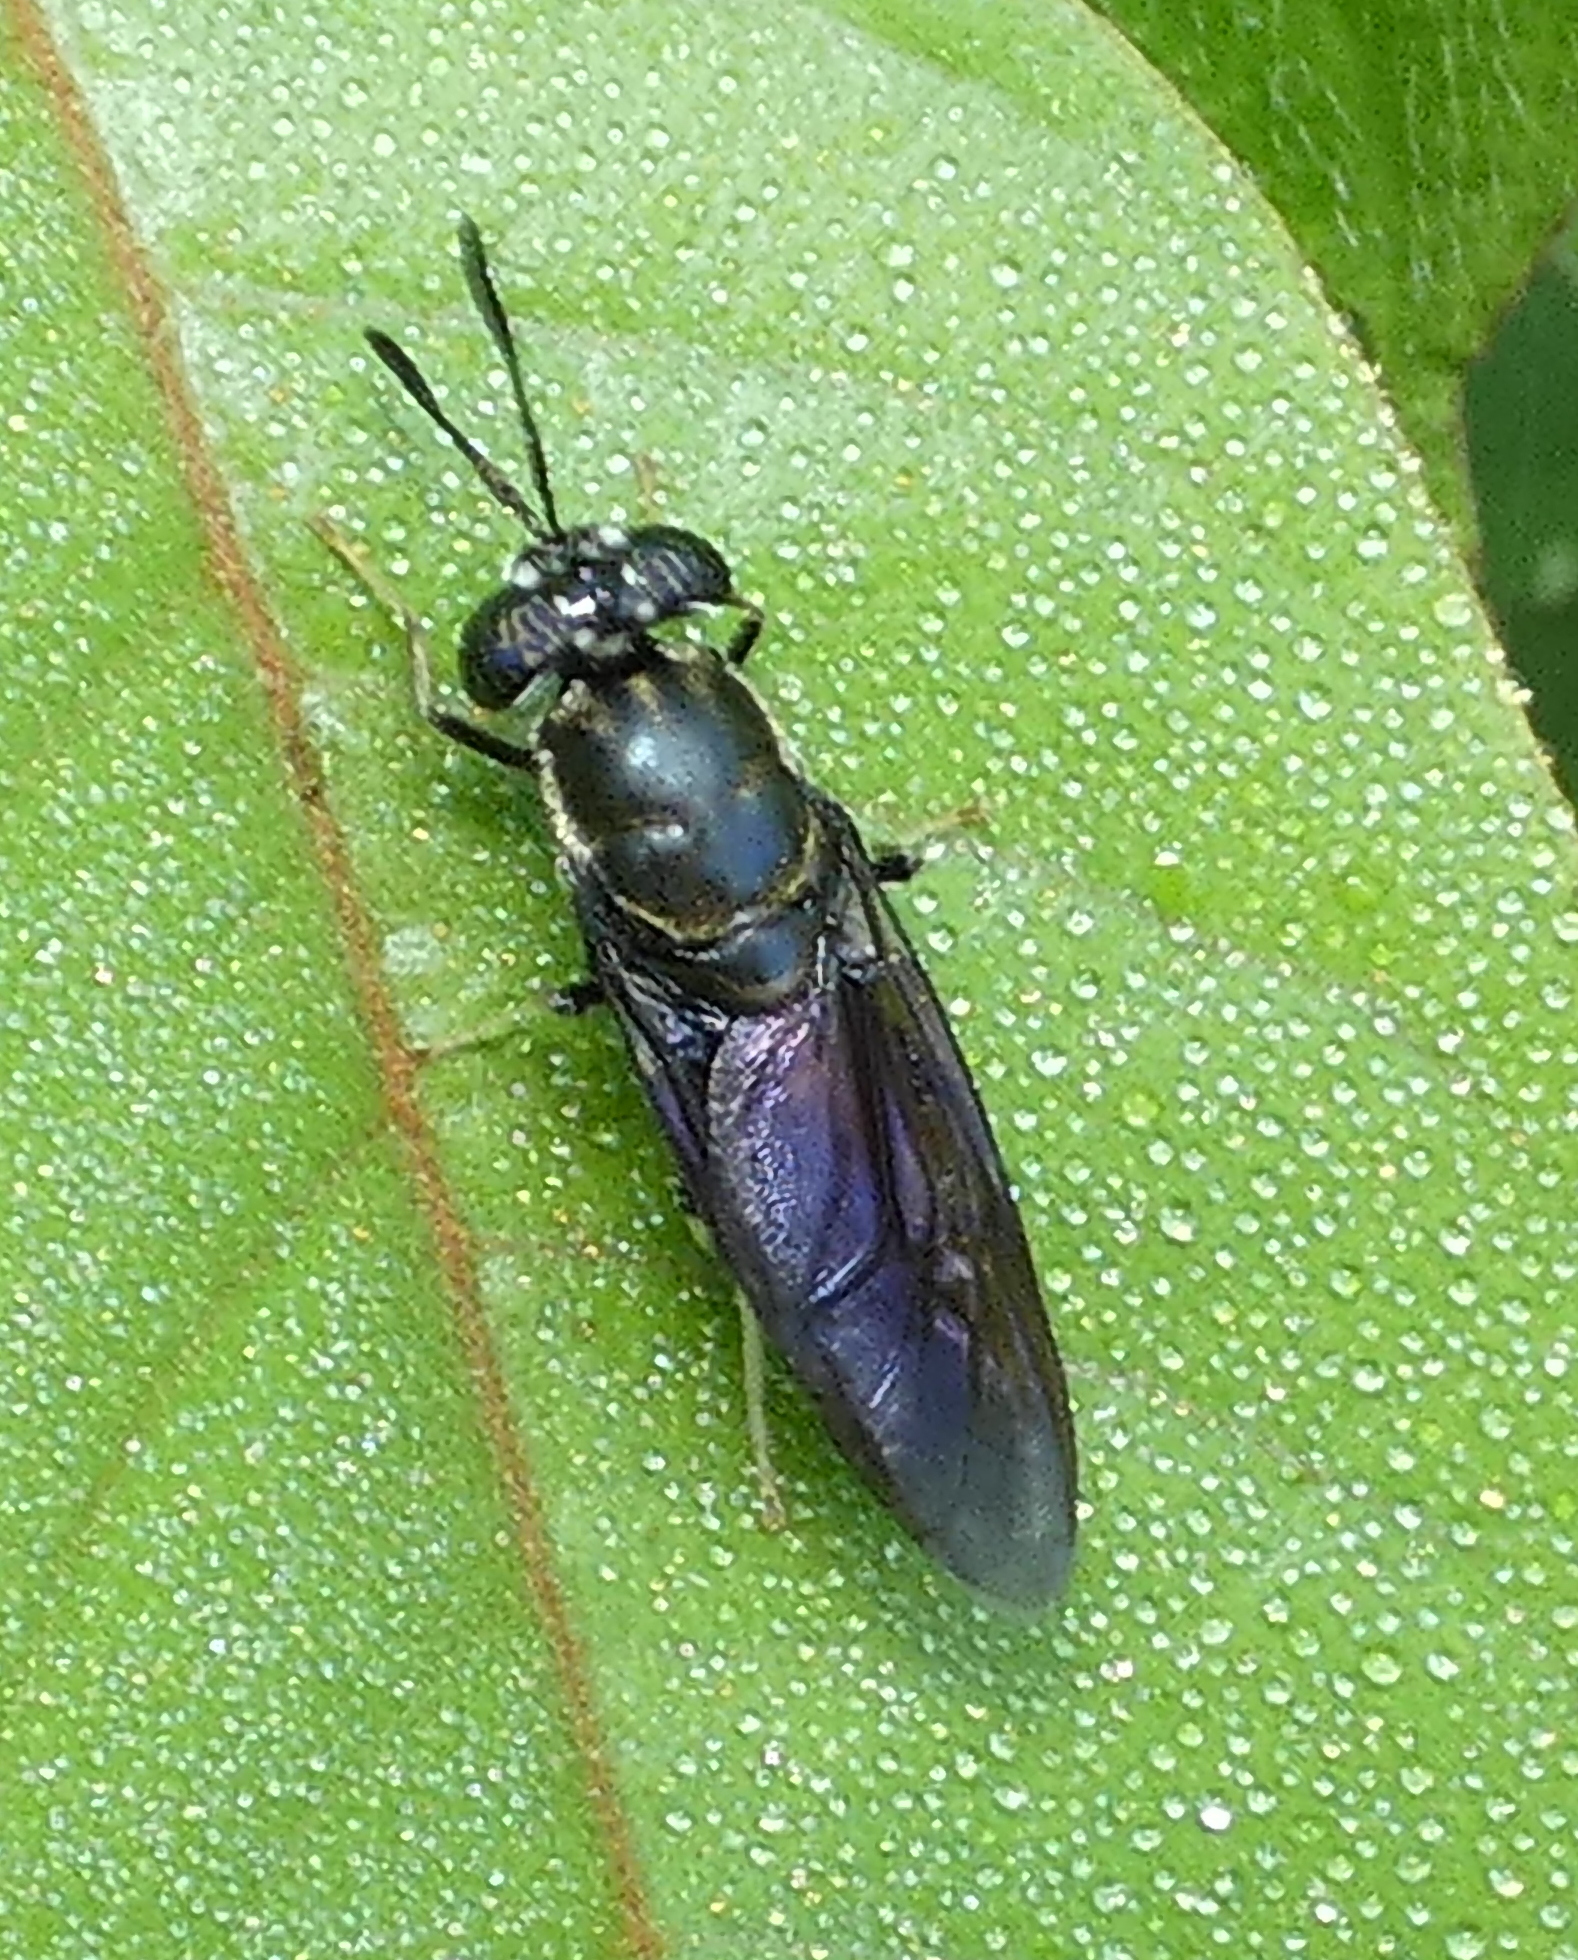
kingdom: Animalia
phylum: Arthropoda
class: Insecta
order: Diptera
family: Stratiomyidae
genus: Hermetia
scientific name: Hermetia illucens
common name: Black soldier fly
